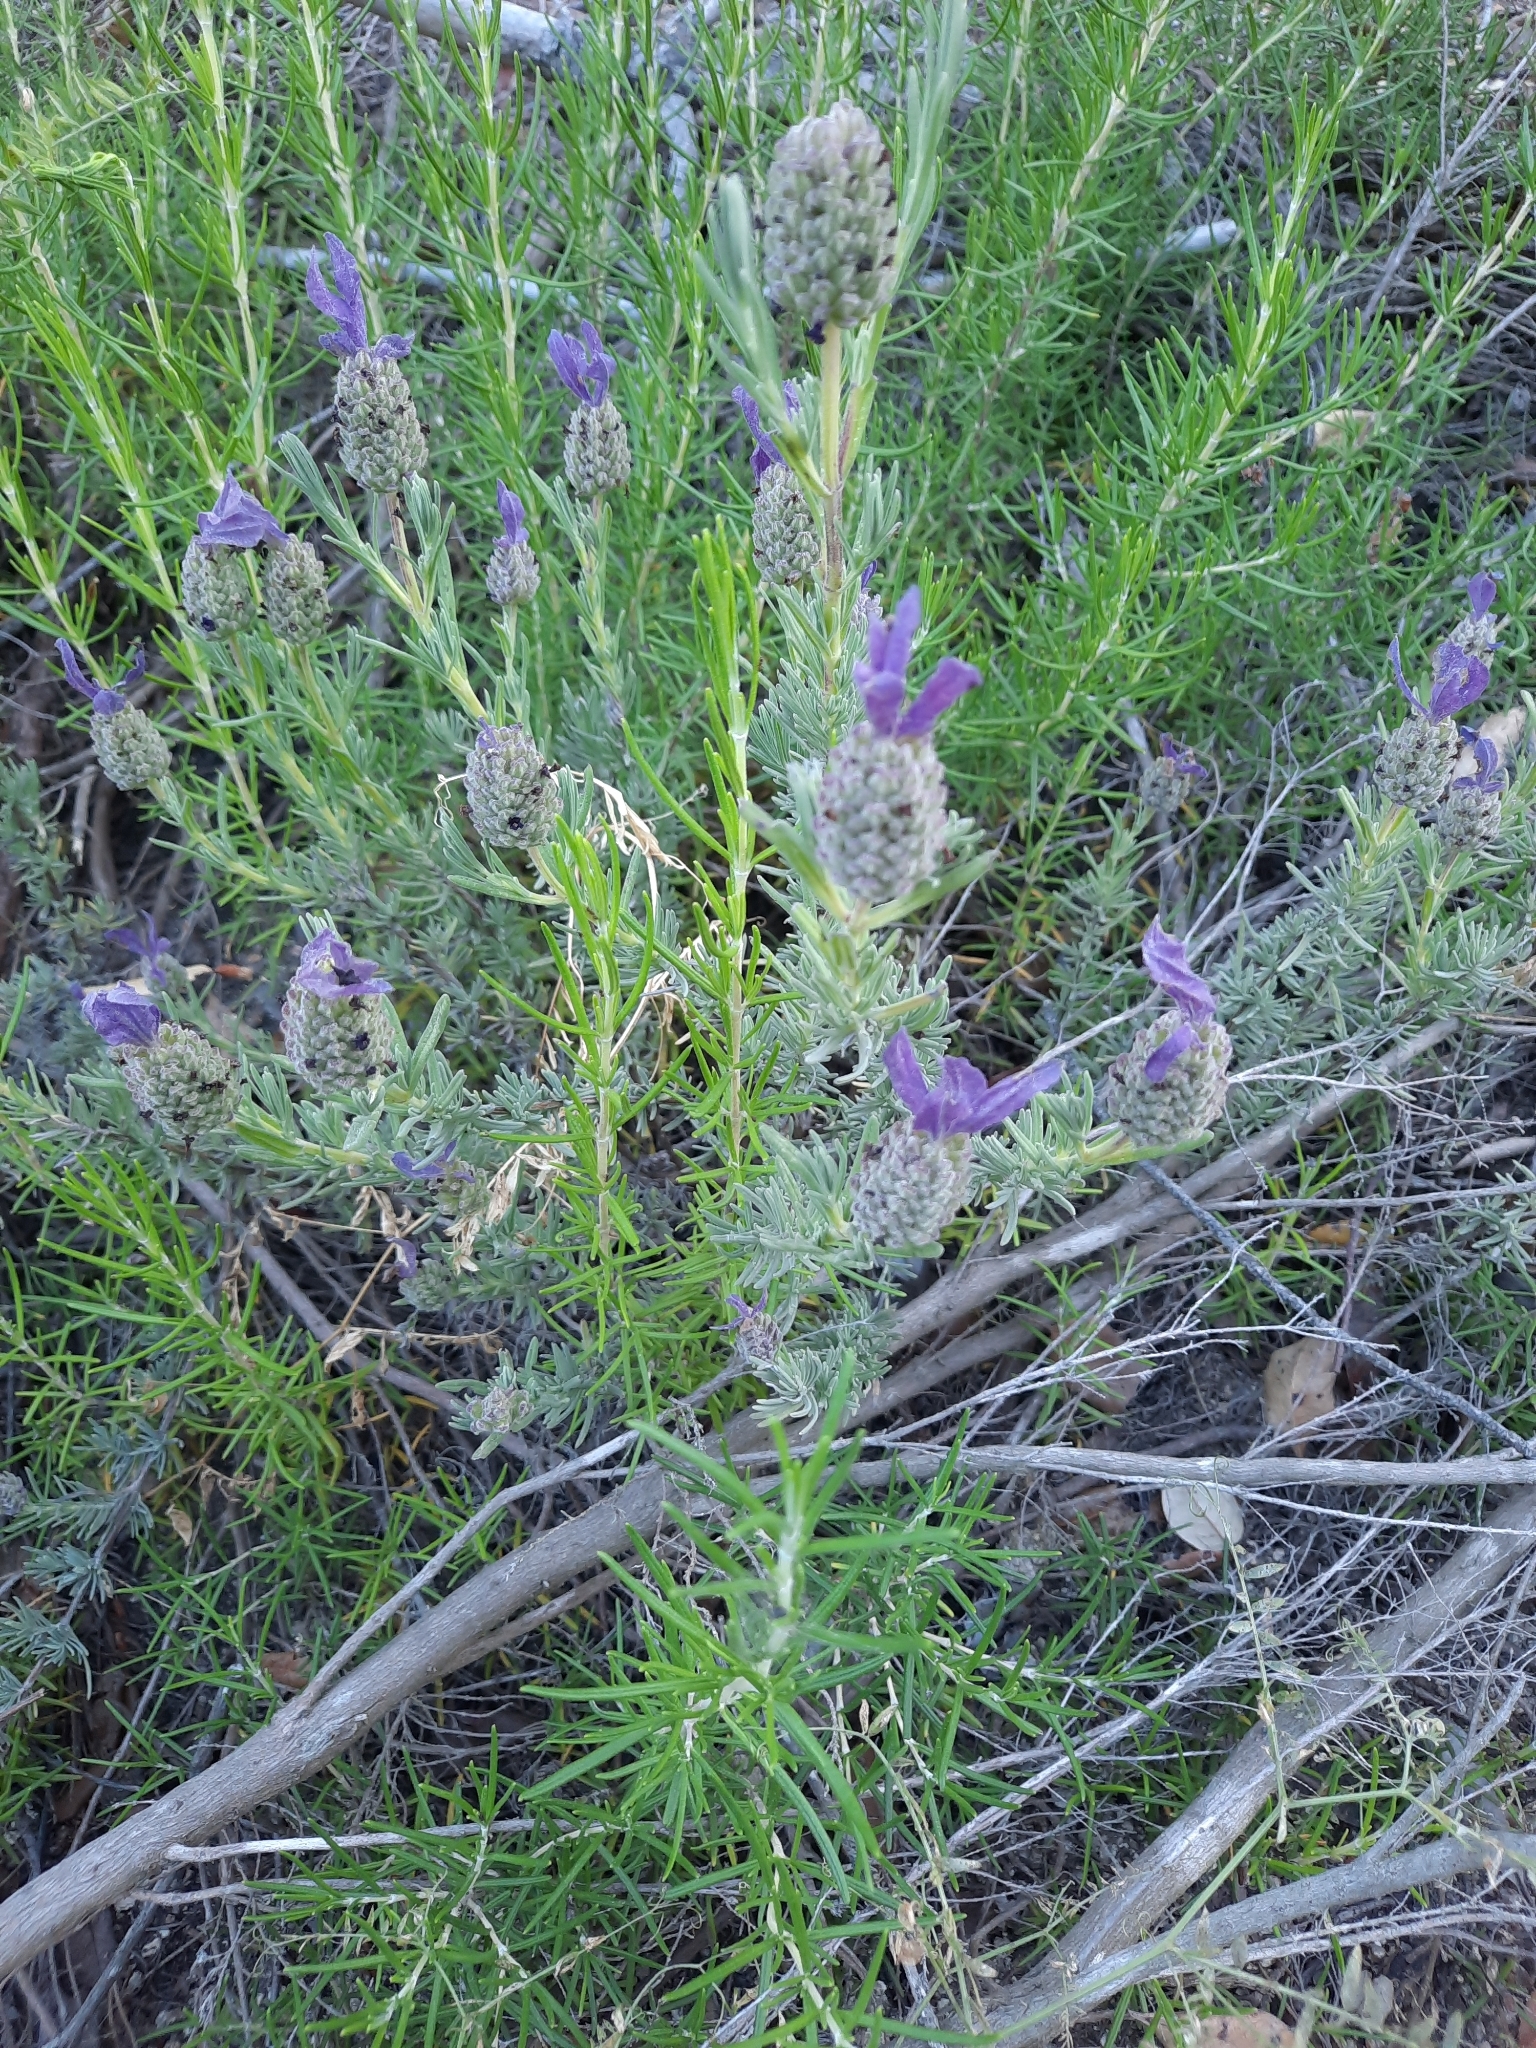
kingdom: Plantae
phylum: Tracheophyta
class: Magnoliopsida
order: Lamiales
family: Lamiaceae
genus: Lavandula
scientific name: Lavandula stoechas
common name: French lavender
